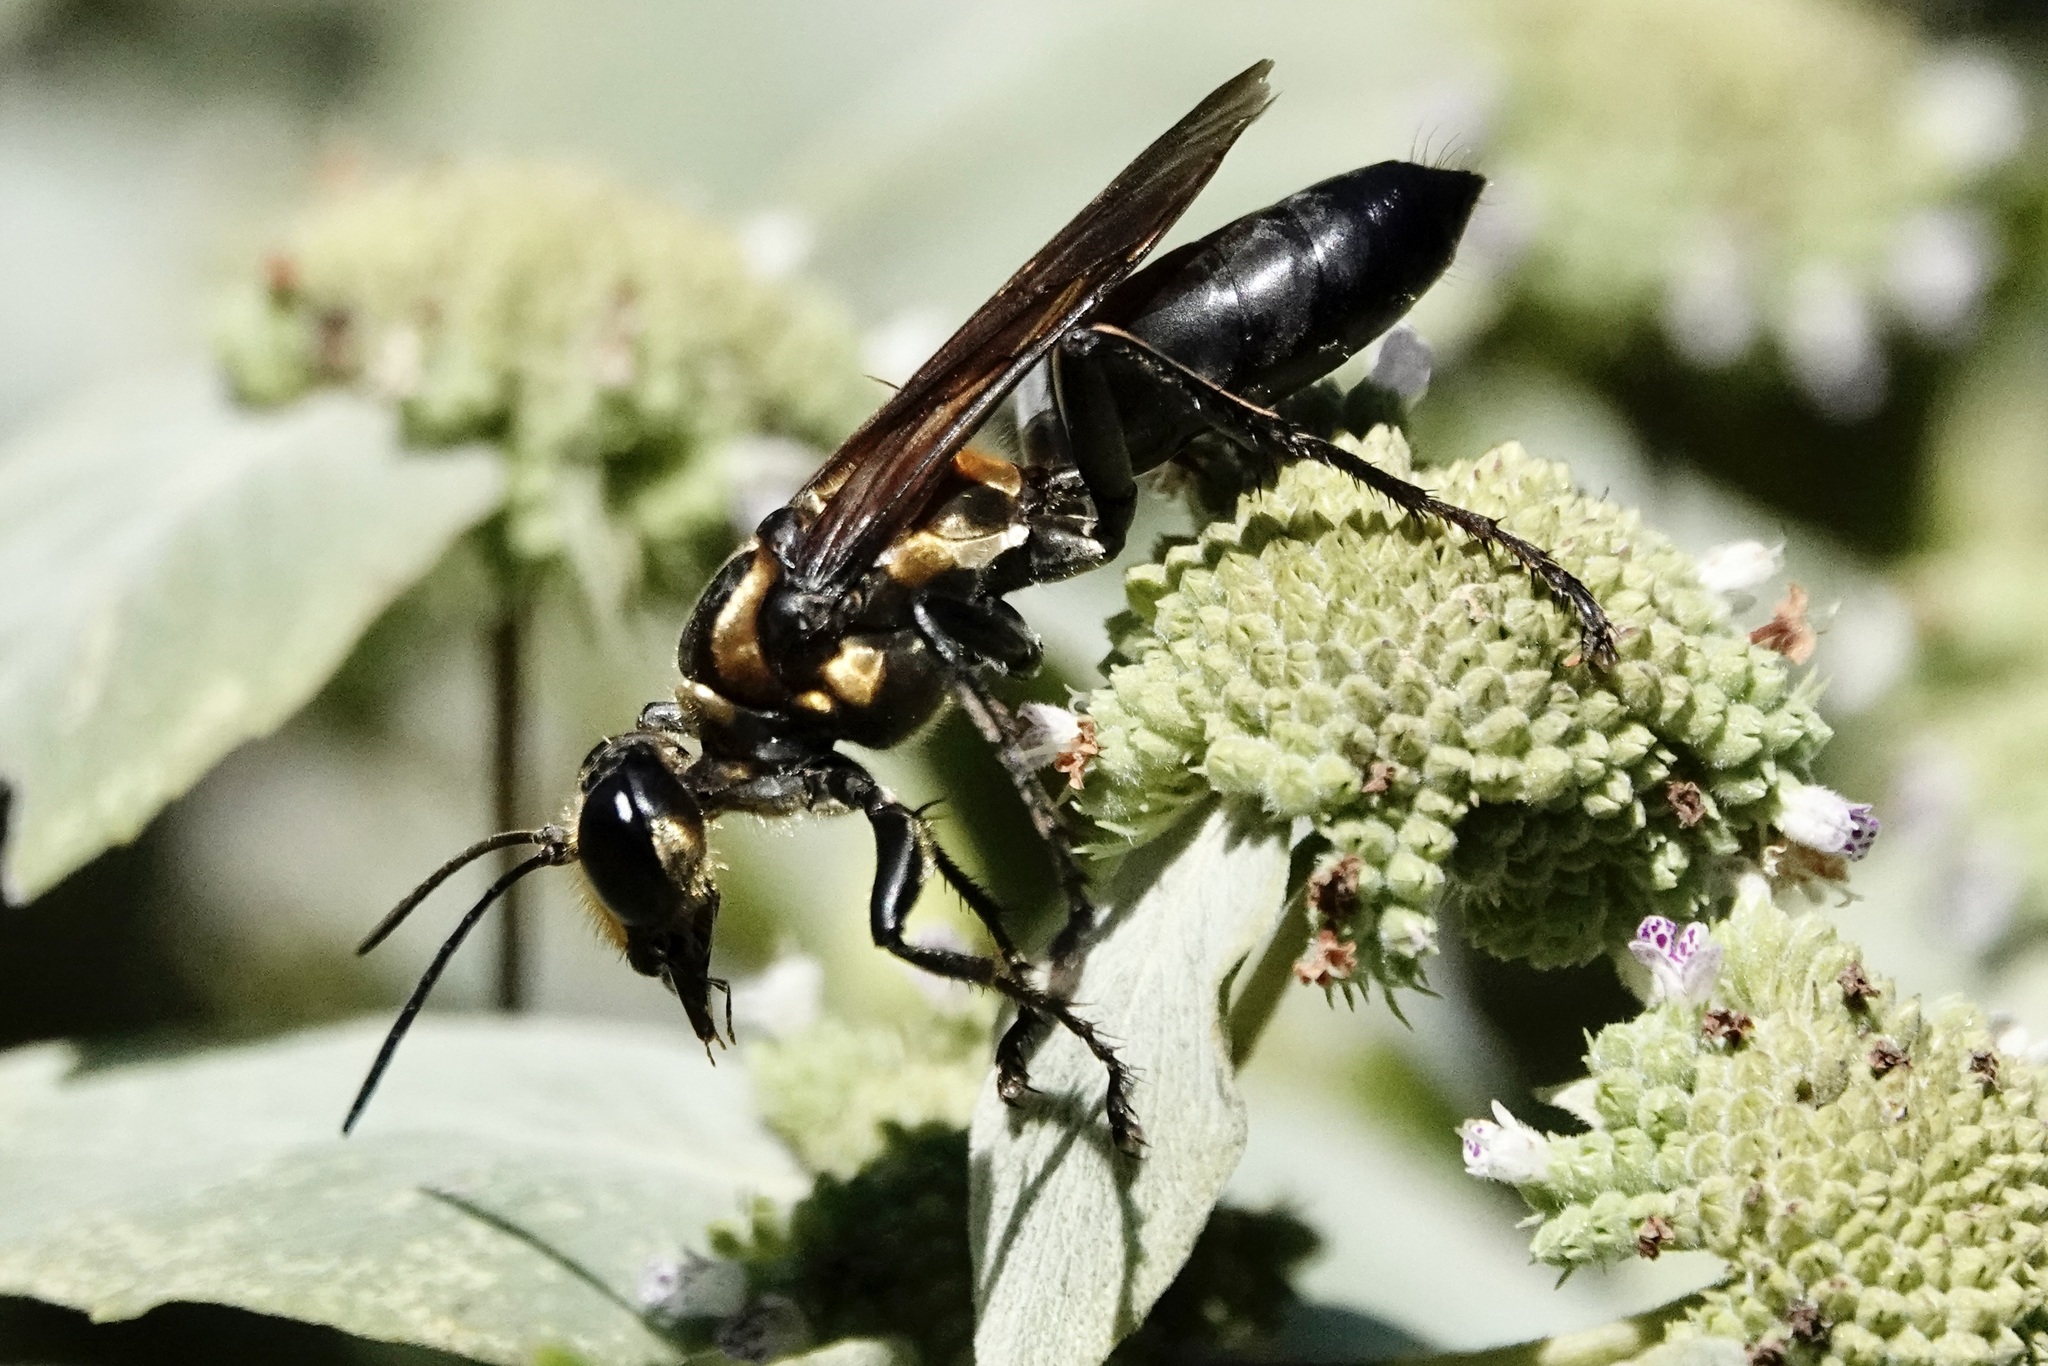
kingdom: Animalia
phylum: Arthropoda
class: Insecta
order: Hymenoptera
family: Sphecidae
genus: Sphex
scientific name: Sphex habenus
